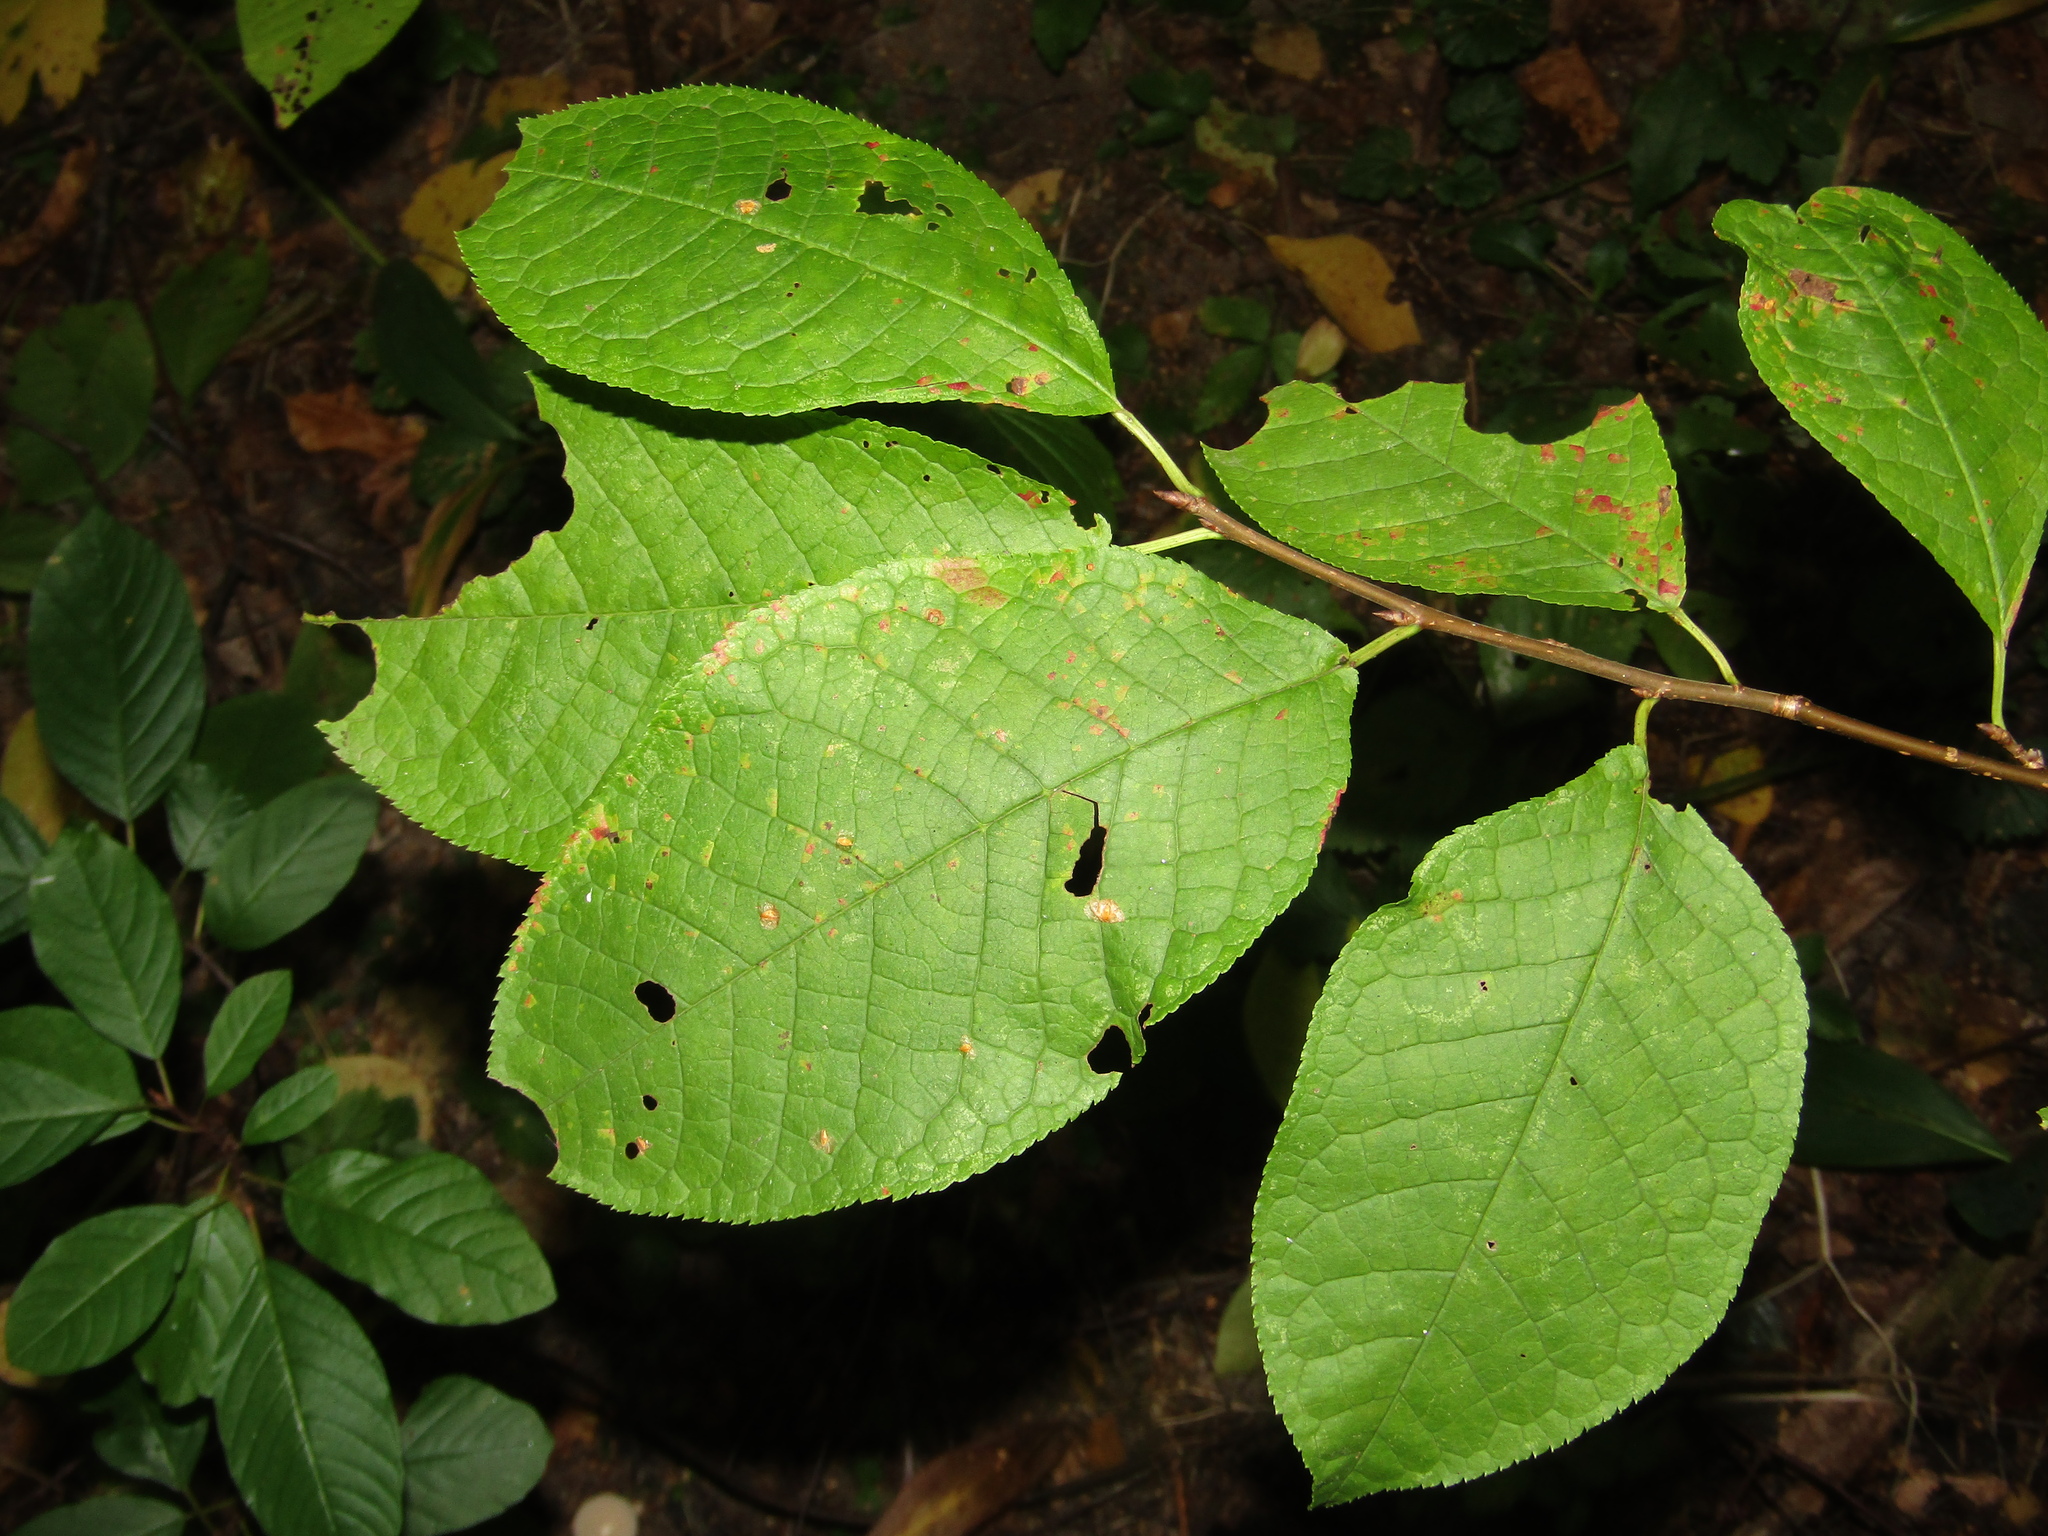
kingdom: Plantae
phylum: Tracheophyta
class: Magnoliopsida
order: Rosales
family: Rosaceae
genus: Prunus
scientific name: Prunus padus
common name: Bird cherry
